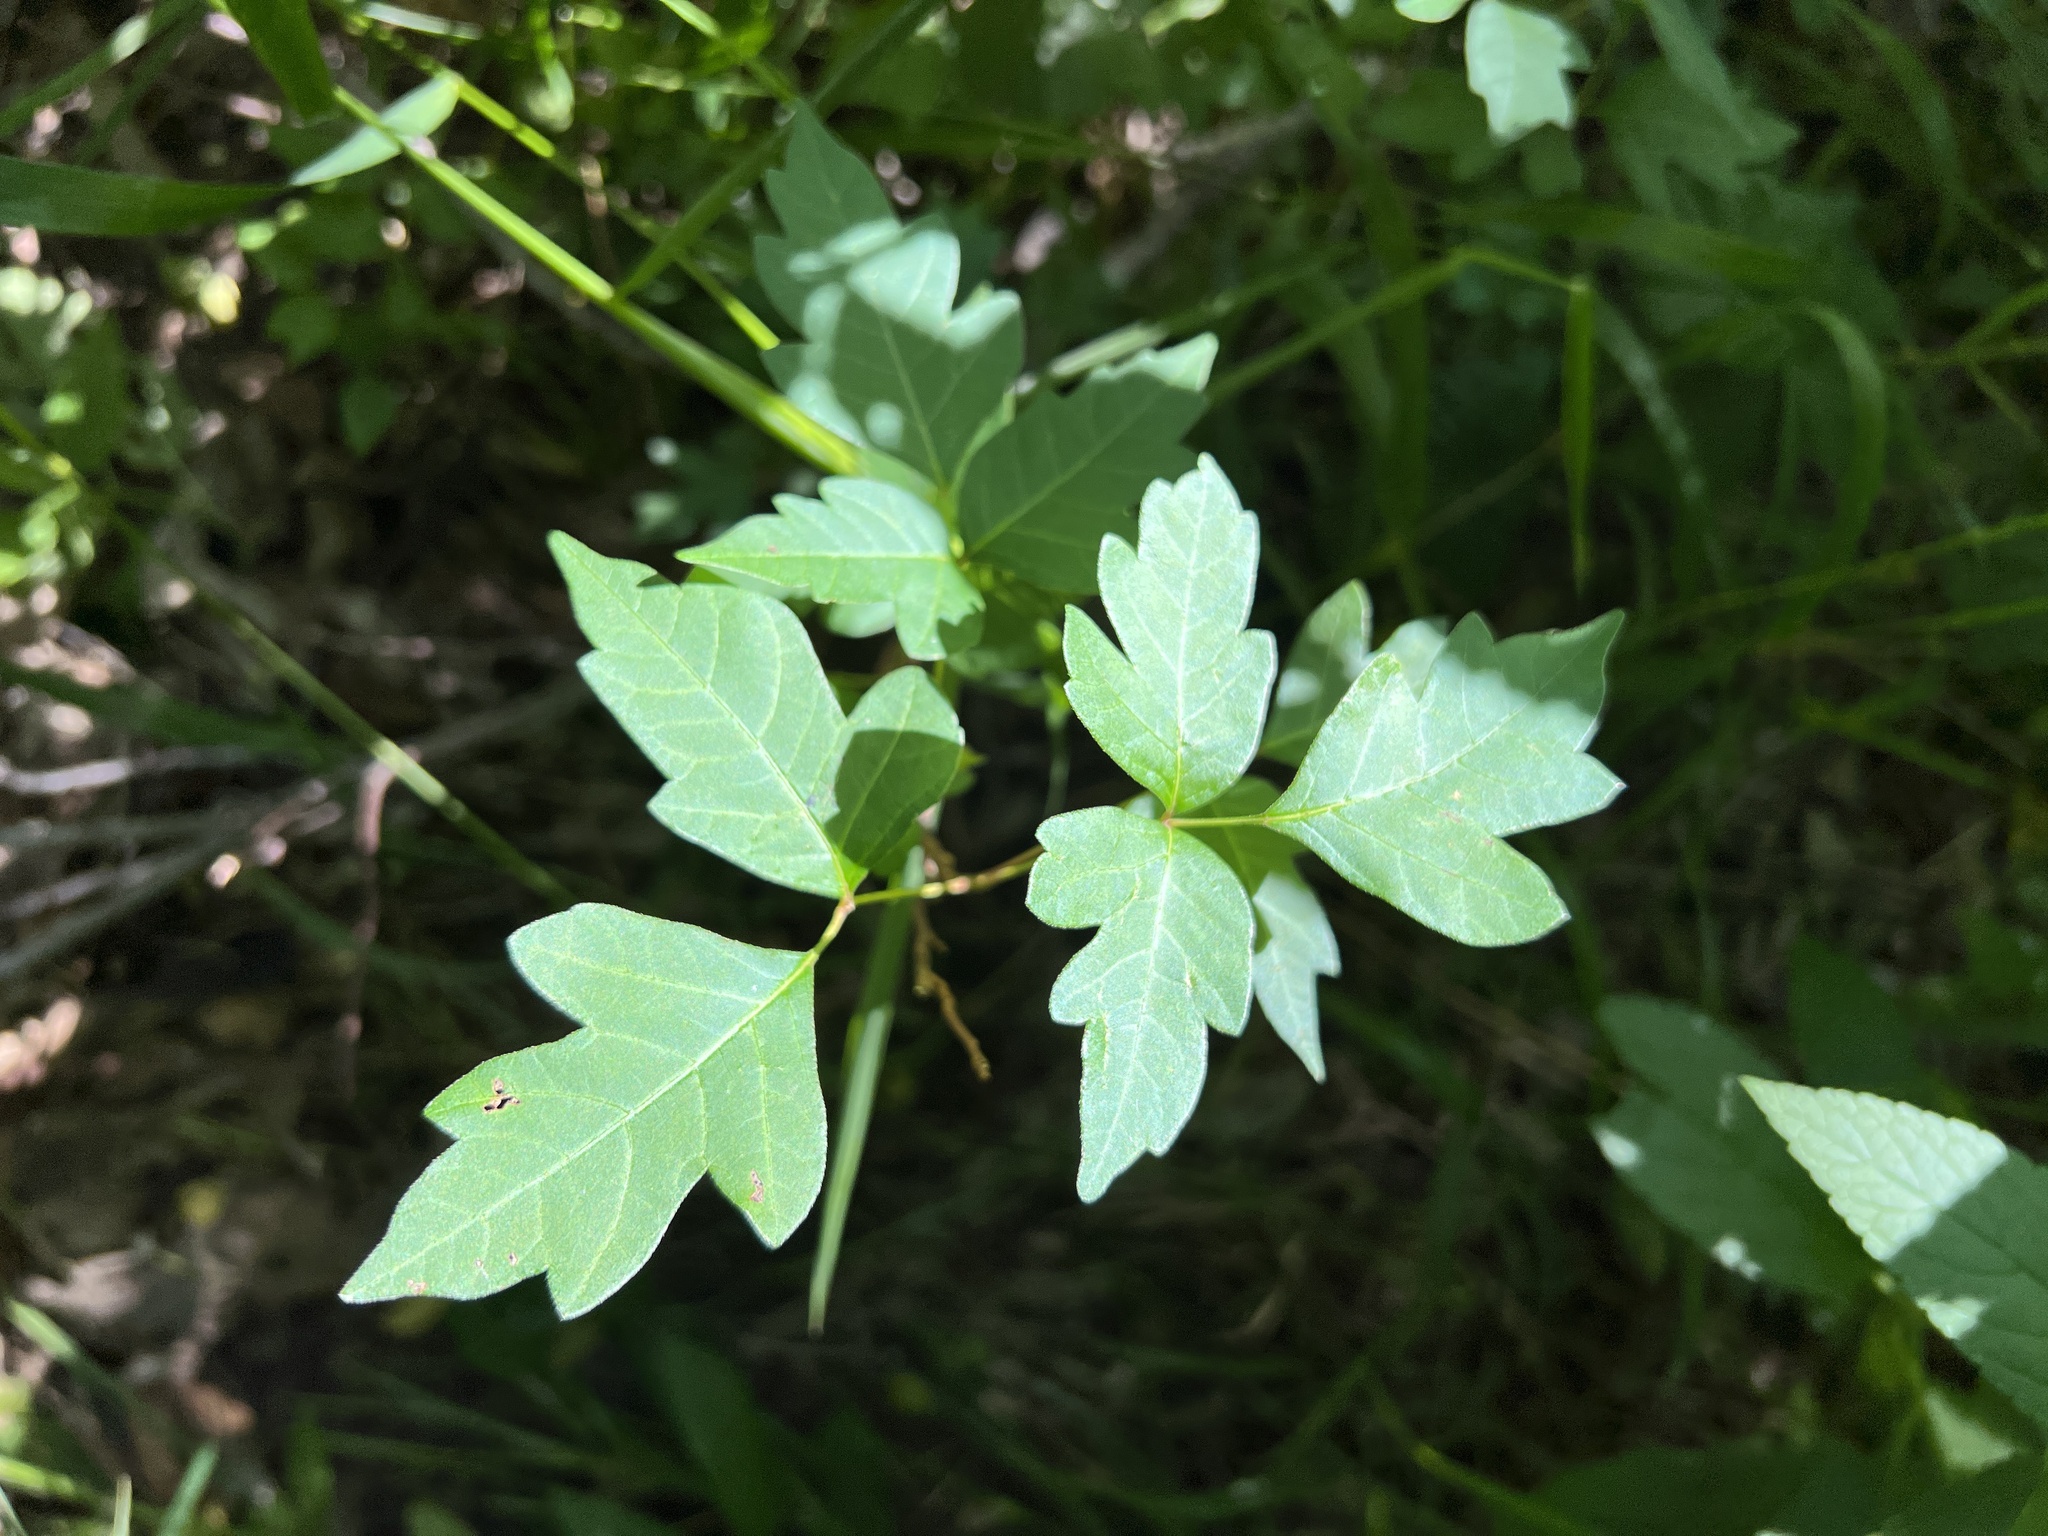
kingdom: Plantae
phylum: Tracheophyta
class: Magnoliopsida
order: Sapindales
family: Anacardiaceae
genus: Toxicodendron
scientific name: Toxicodendron radicans
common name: Poison ivy
